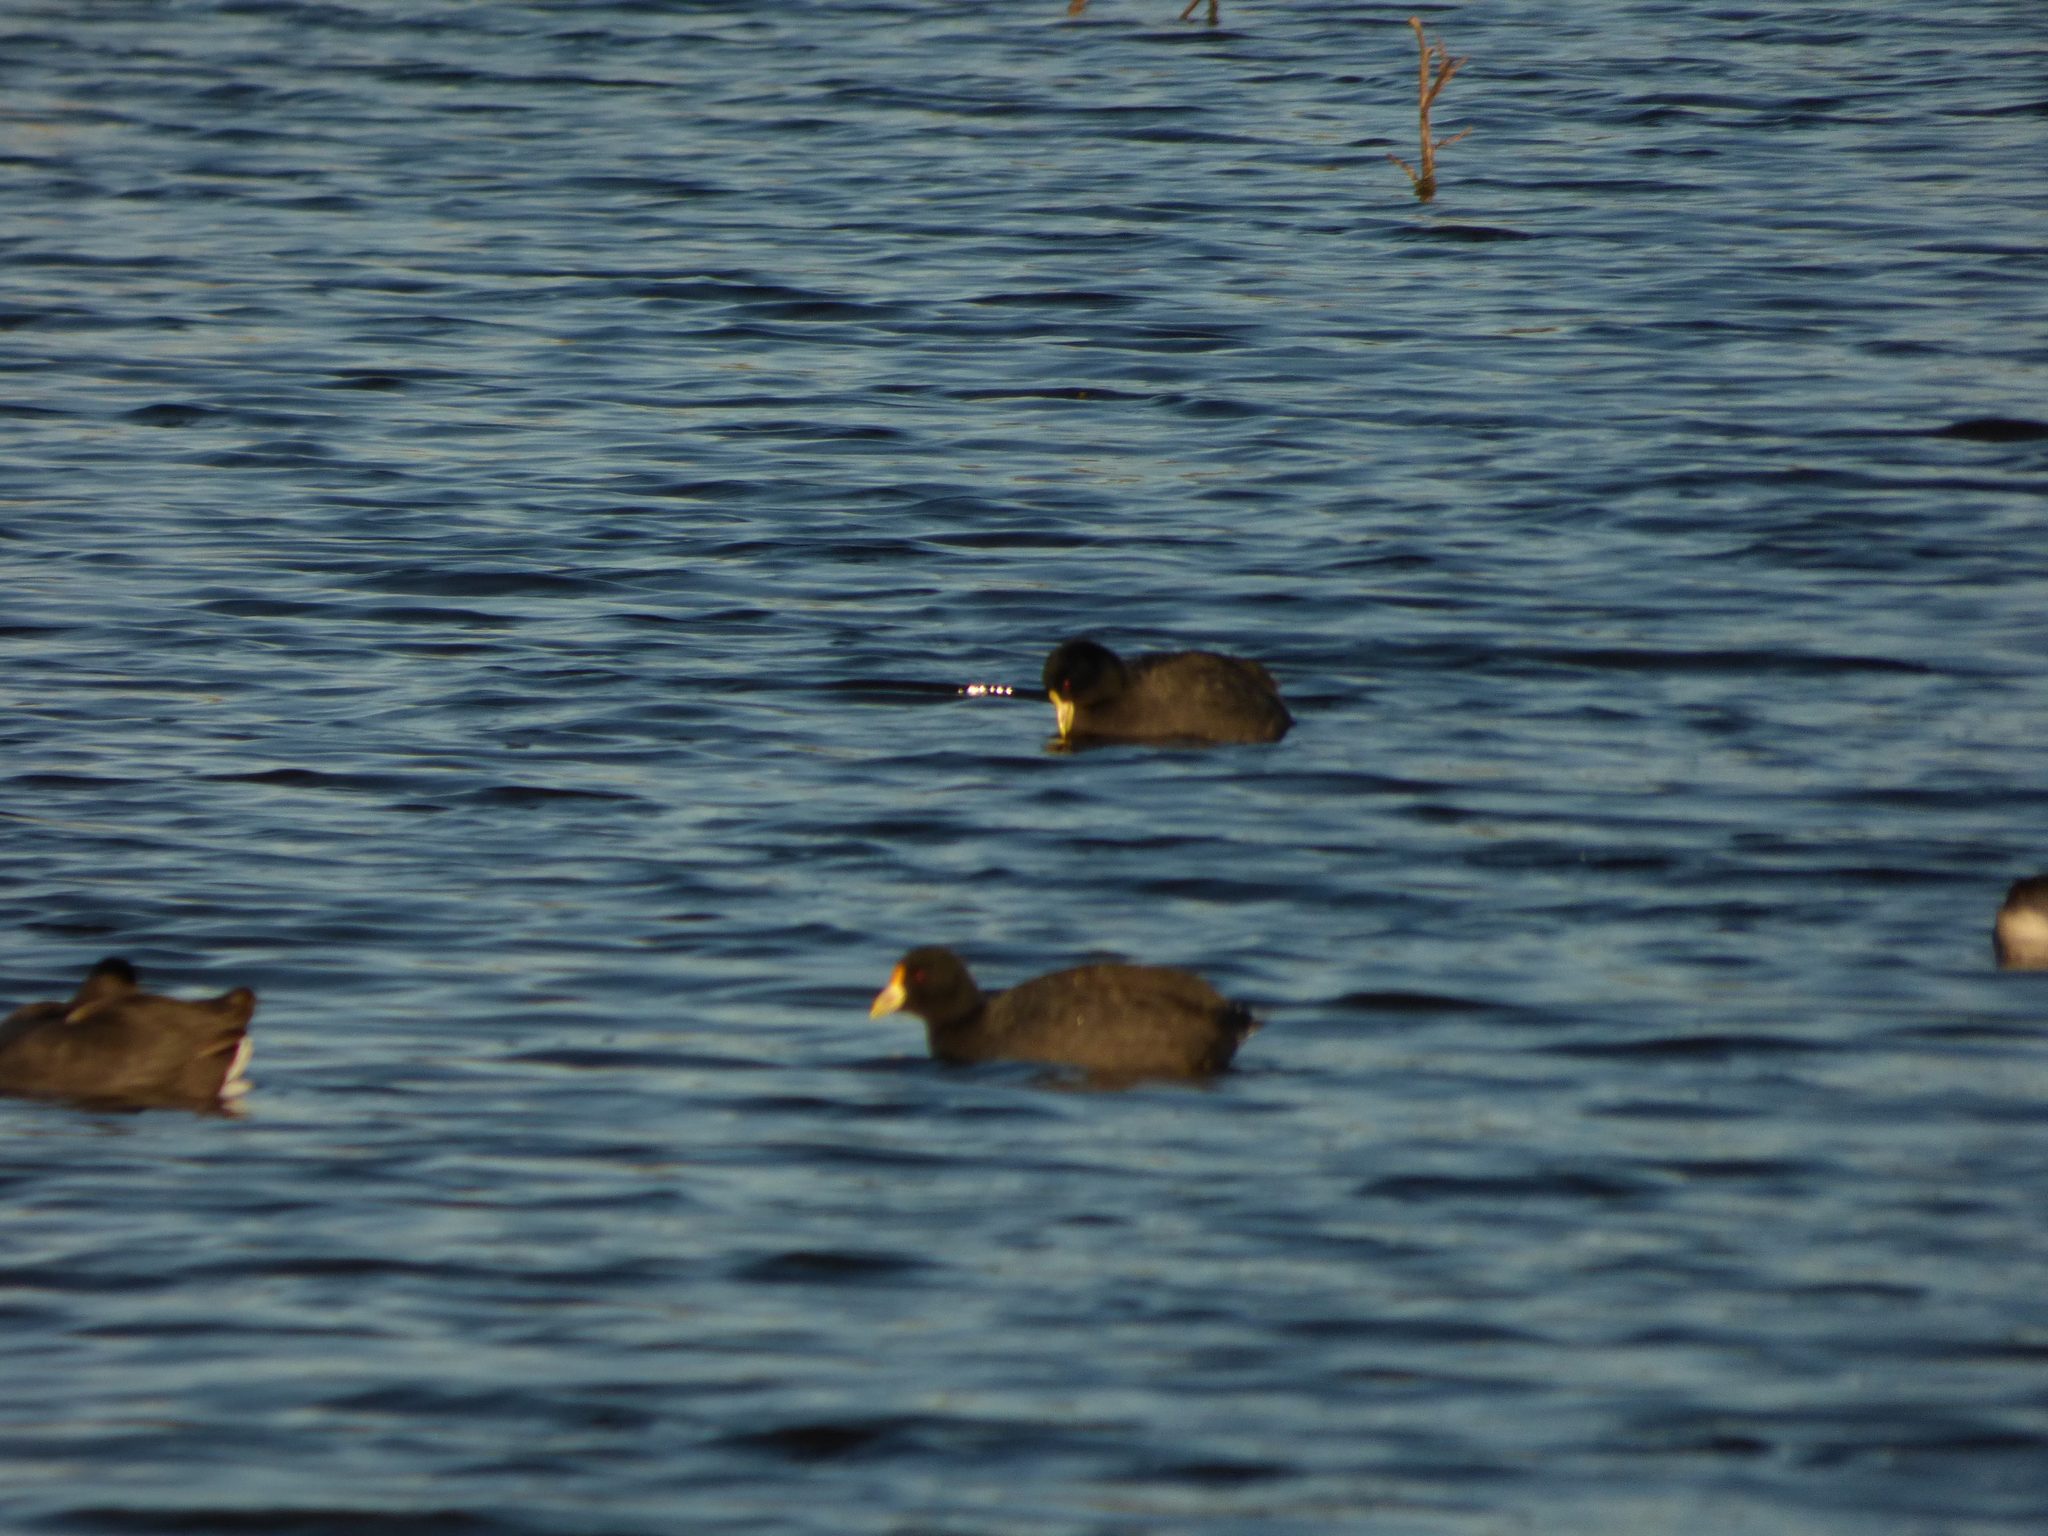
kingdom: Animalia
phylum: Chordata
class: Aves
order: Gruiformes
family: Rallidae
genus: Fulica
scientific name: Fulica leucoptera
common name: White-winged coot
